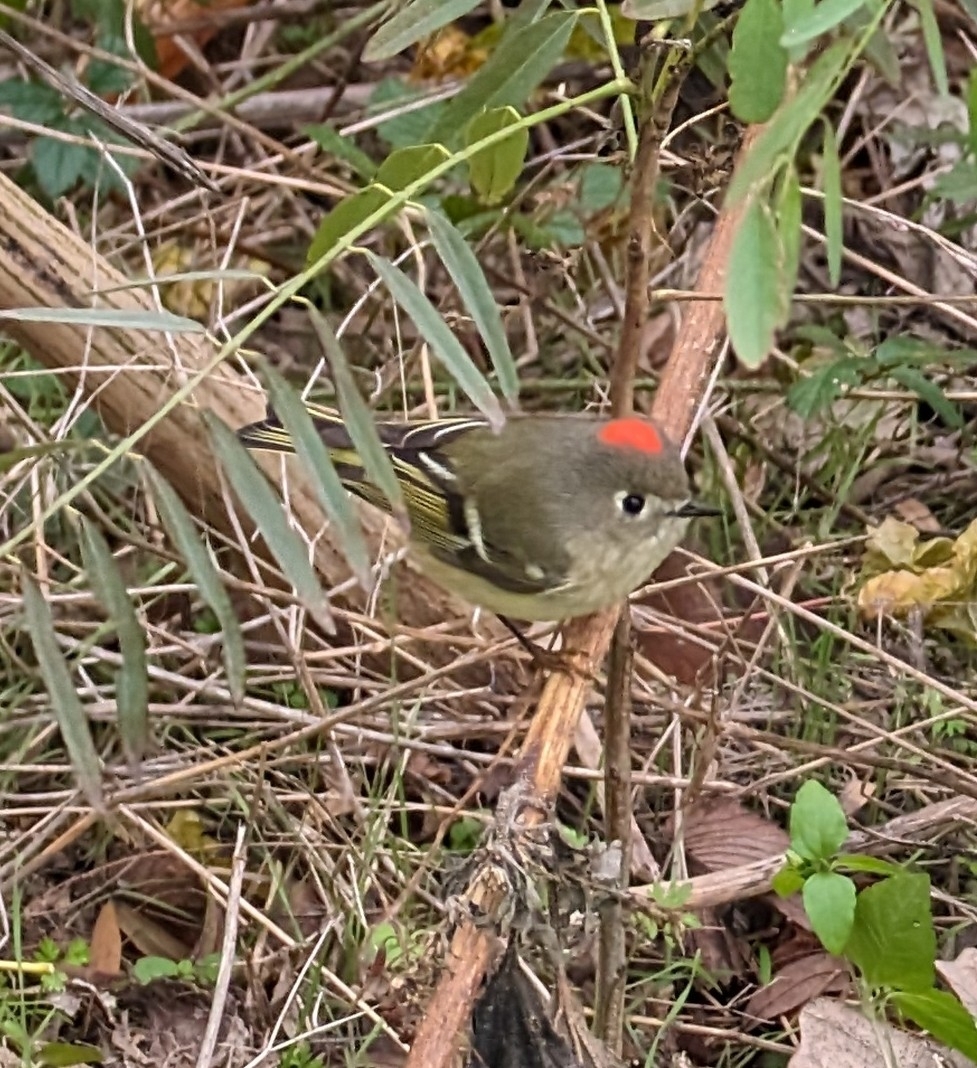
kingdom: Animalia
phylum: Chordata
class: Aves
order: Passeriformes
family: Regulidae
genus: Regulus
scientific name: Regulus calendula
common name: Ruby-crowned kinglet
